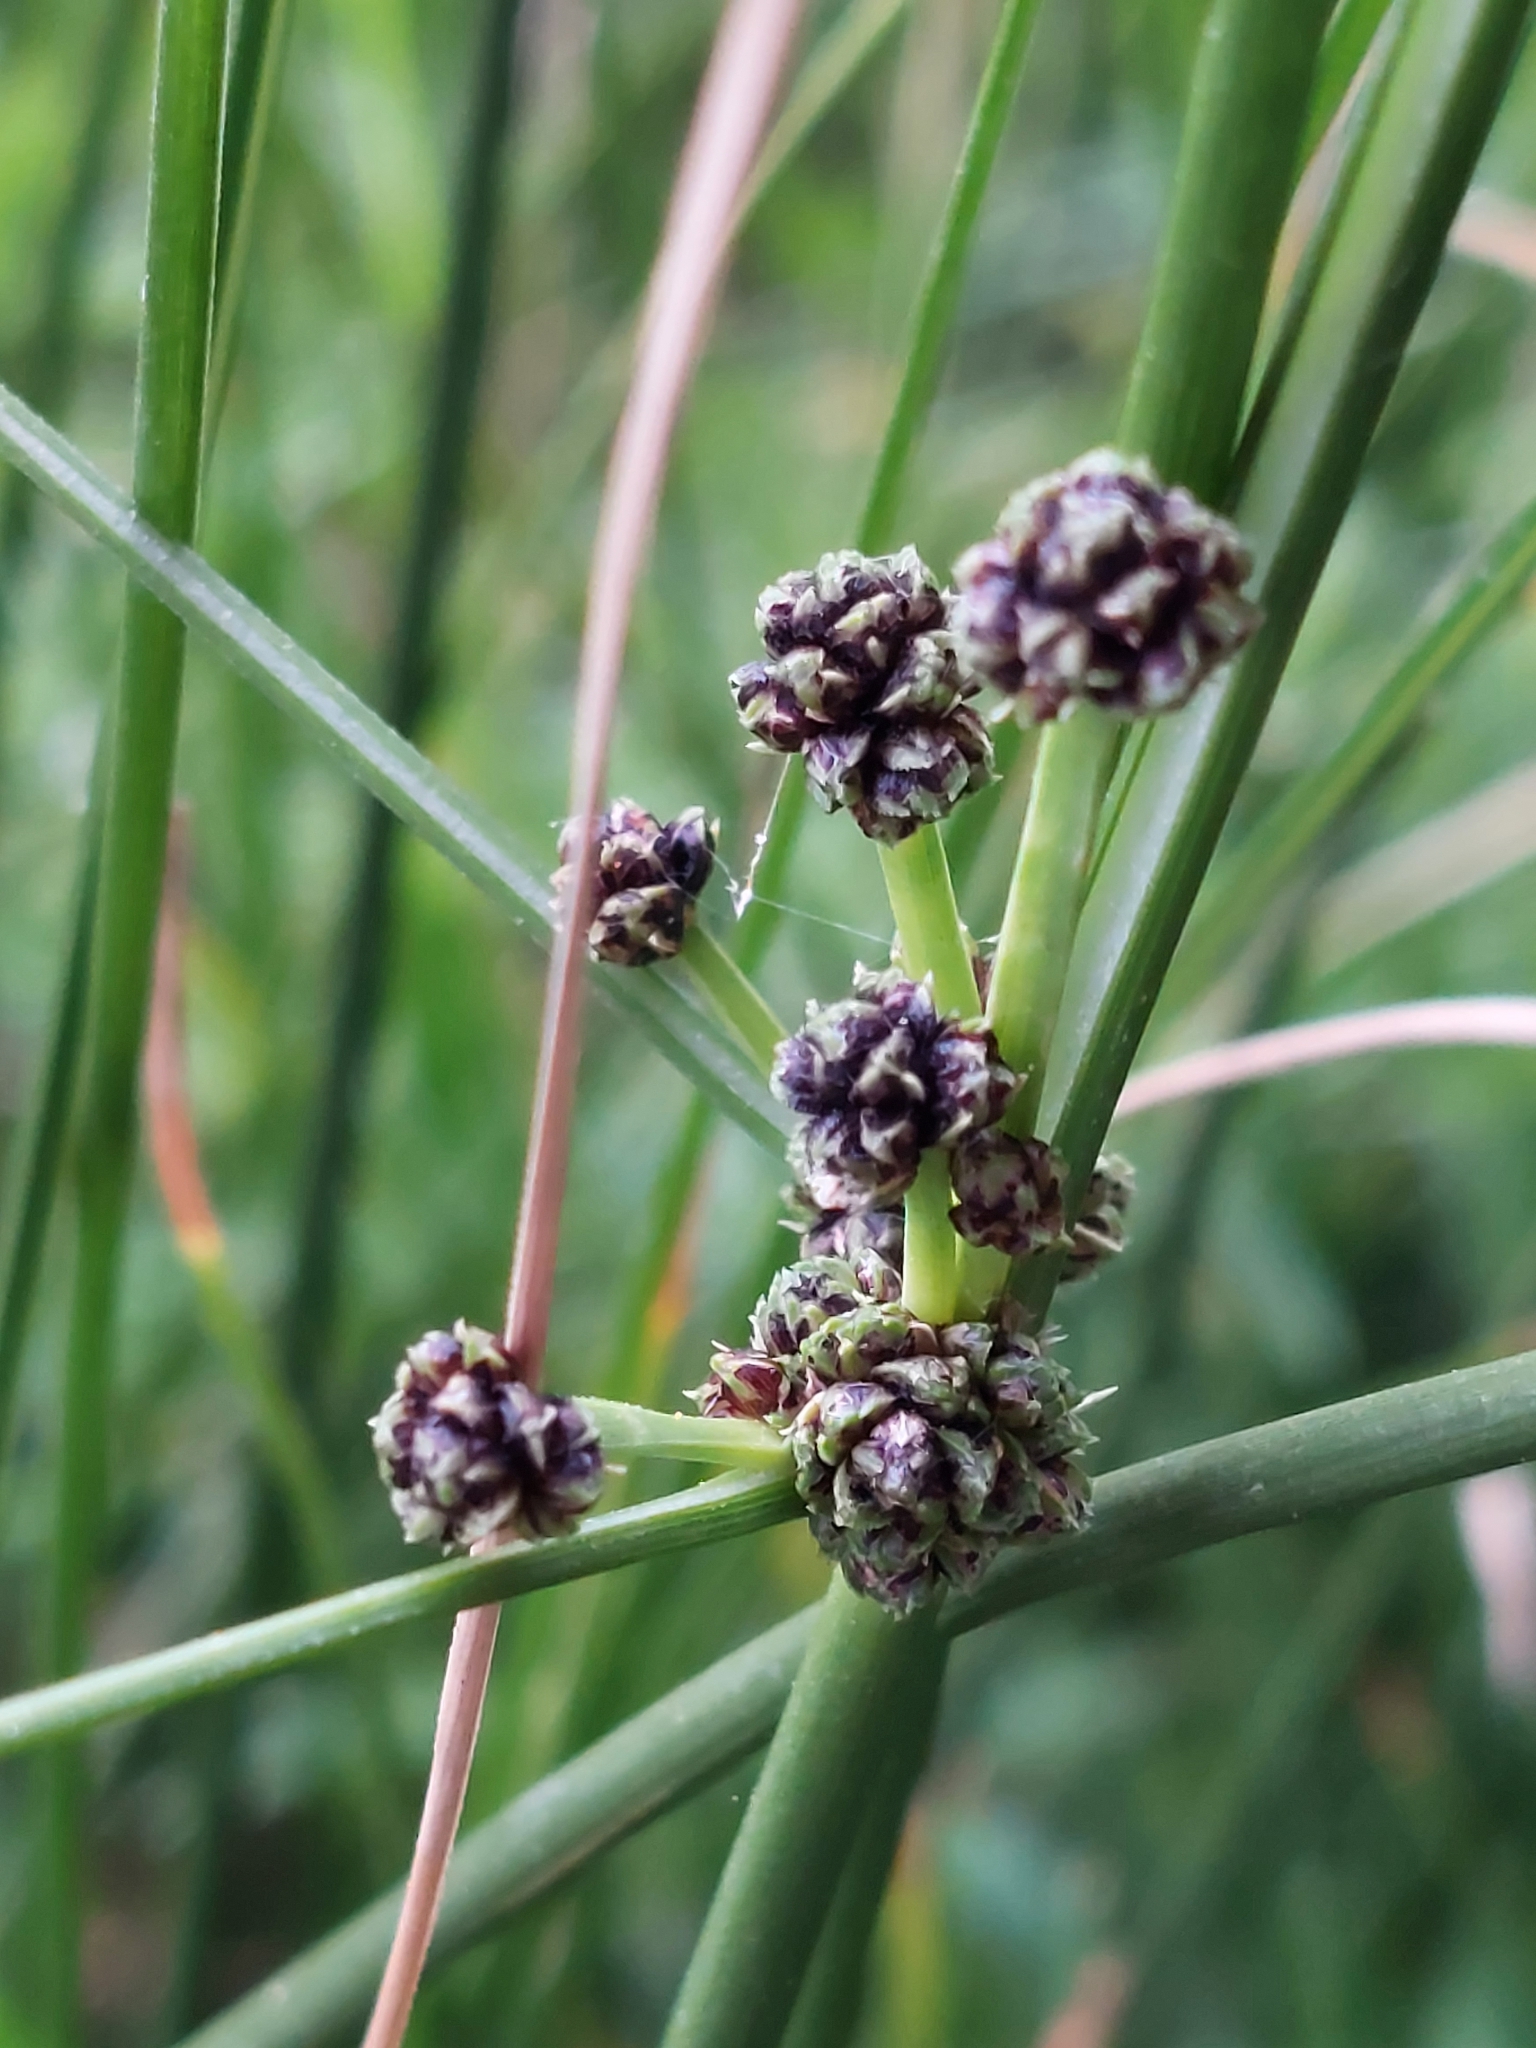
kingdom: Plantae
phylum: Tracheophyta
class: Liliopsida
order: Poales
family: Cyperaceae
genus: Scirpoides
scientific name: Scirpoides holoschoenus
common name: Round-headed club-rush
